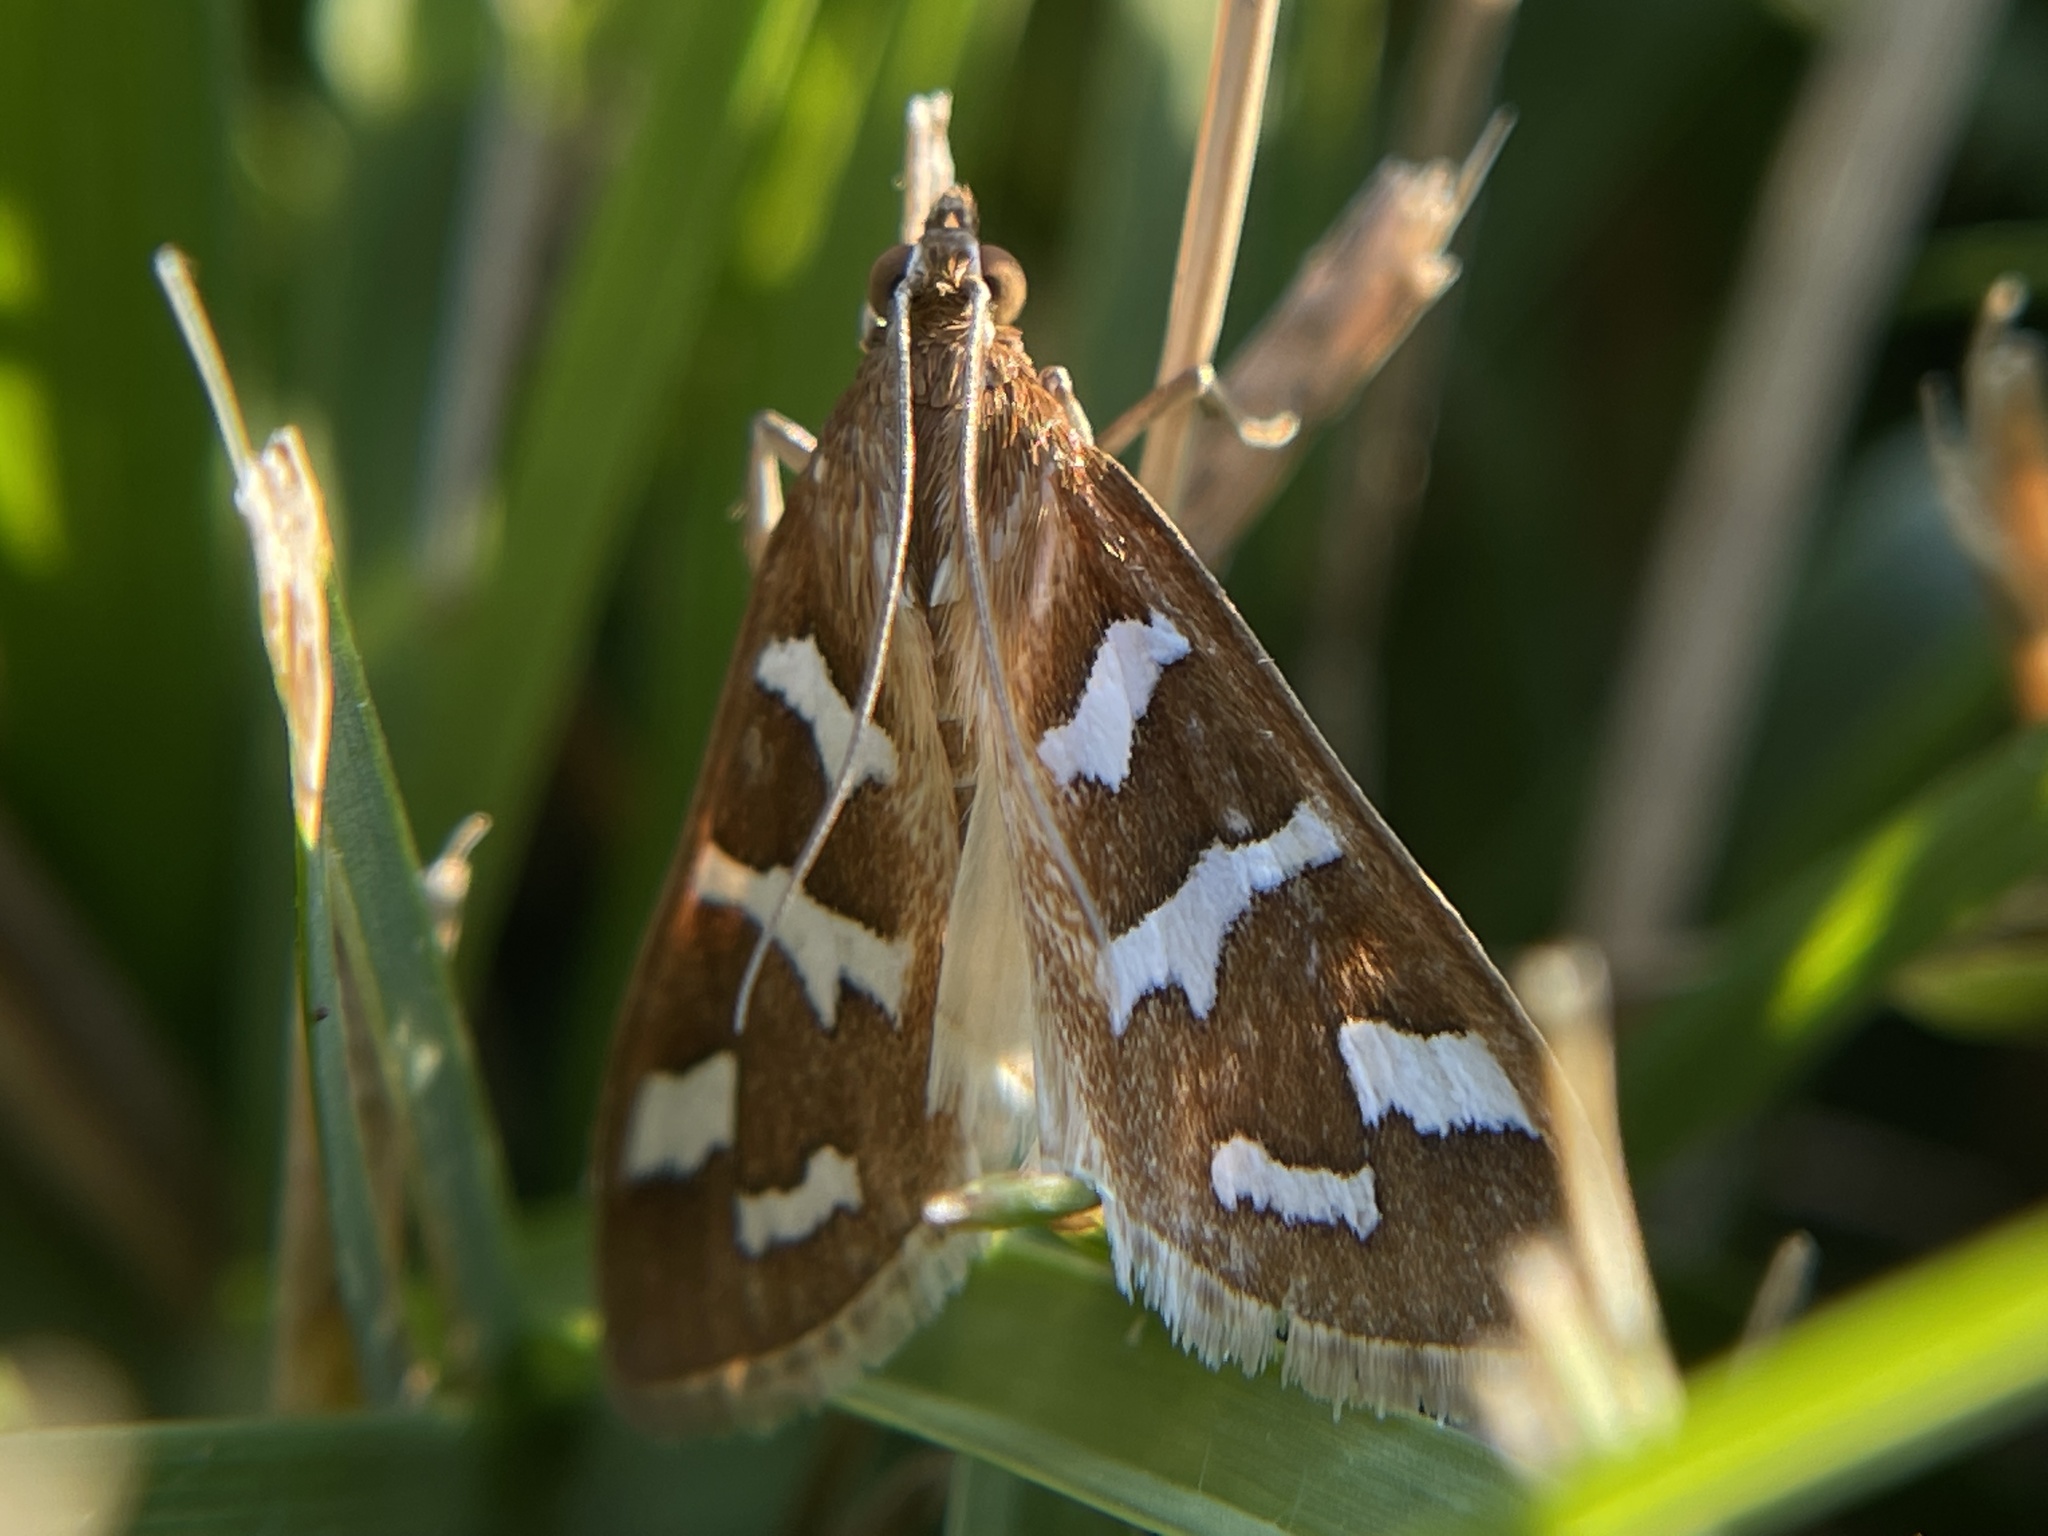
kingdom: Animalia
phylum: Arthropoda
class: Insecta
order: Lepidoptera
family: Crambidae
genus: Diastictis
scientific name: Diastictis fracturalis
